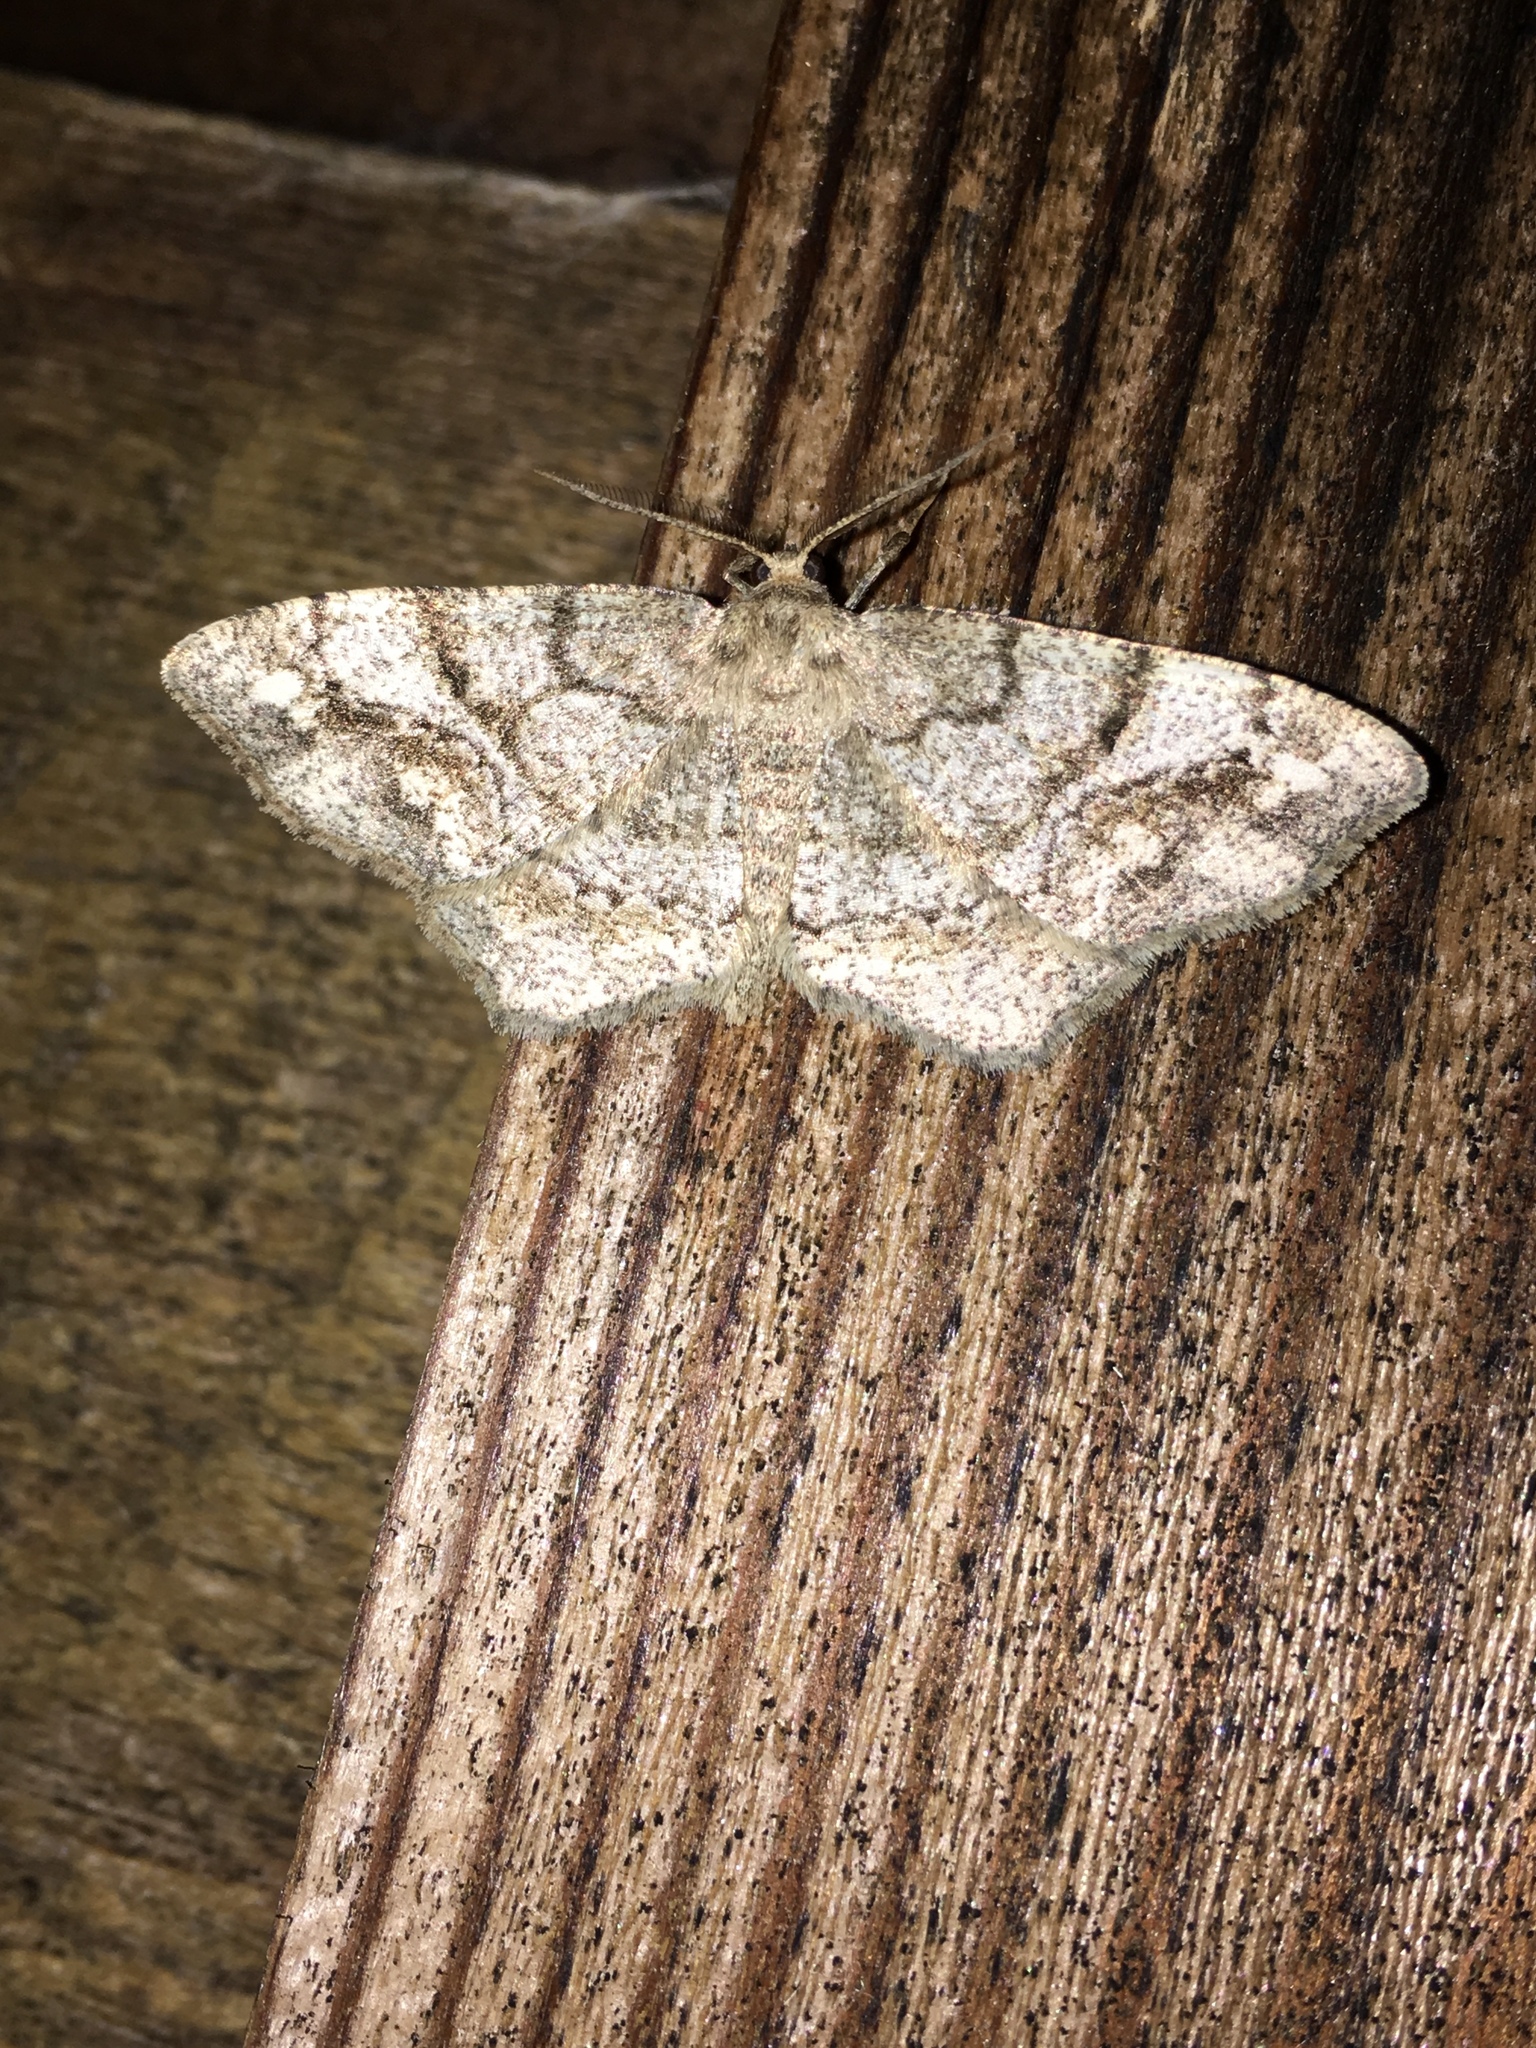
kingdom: Animalia
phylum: Arthropoda
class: Insecta
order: Lepidoptera
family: Geometridae
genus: Hypagyrtis
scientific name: Hypagyrtis unipunctata
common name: One-spotted variant
